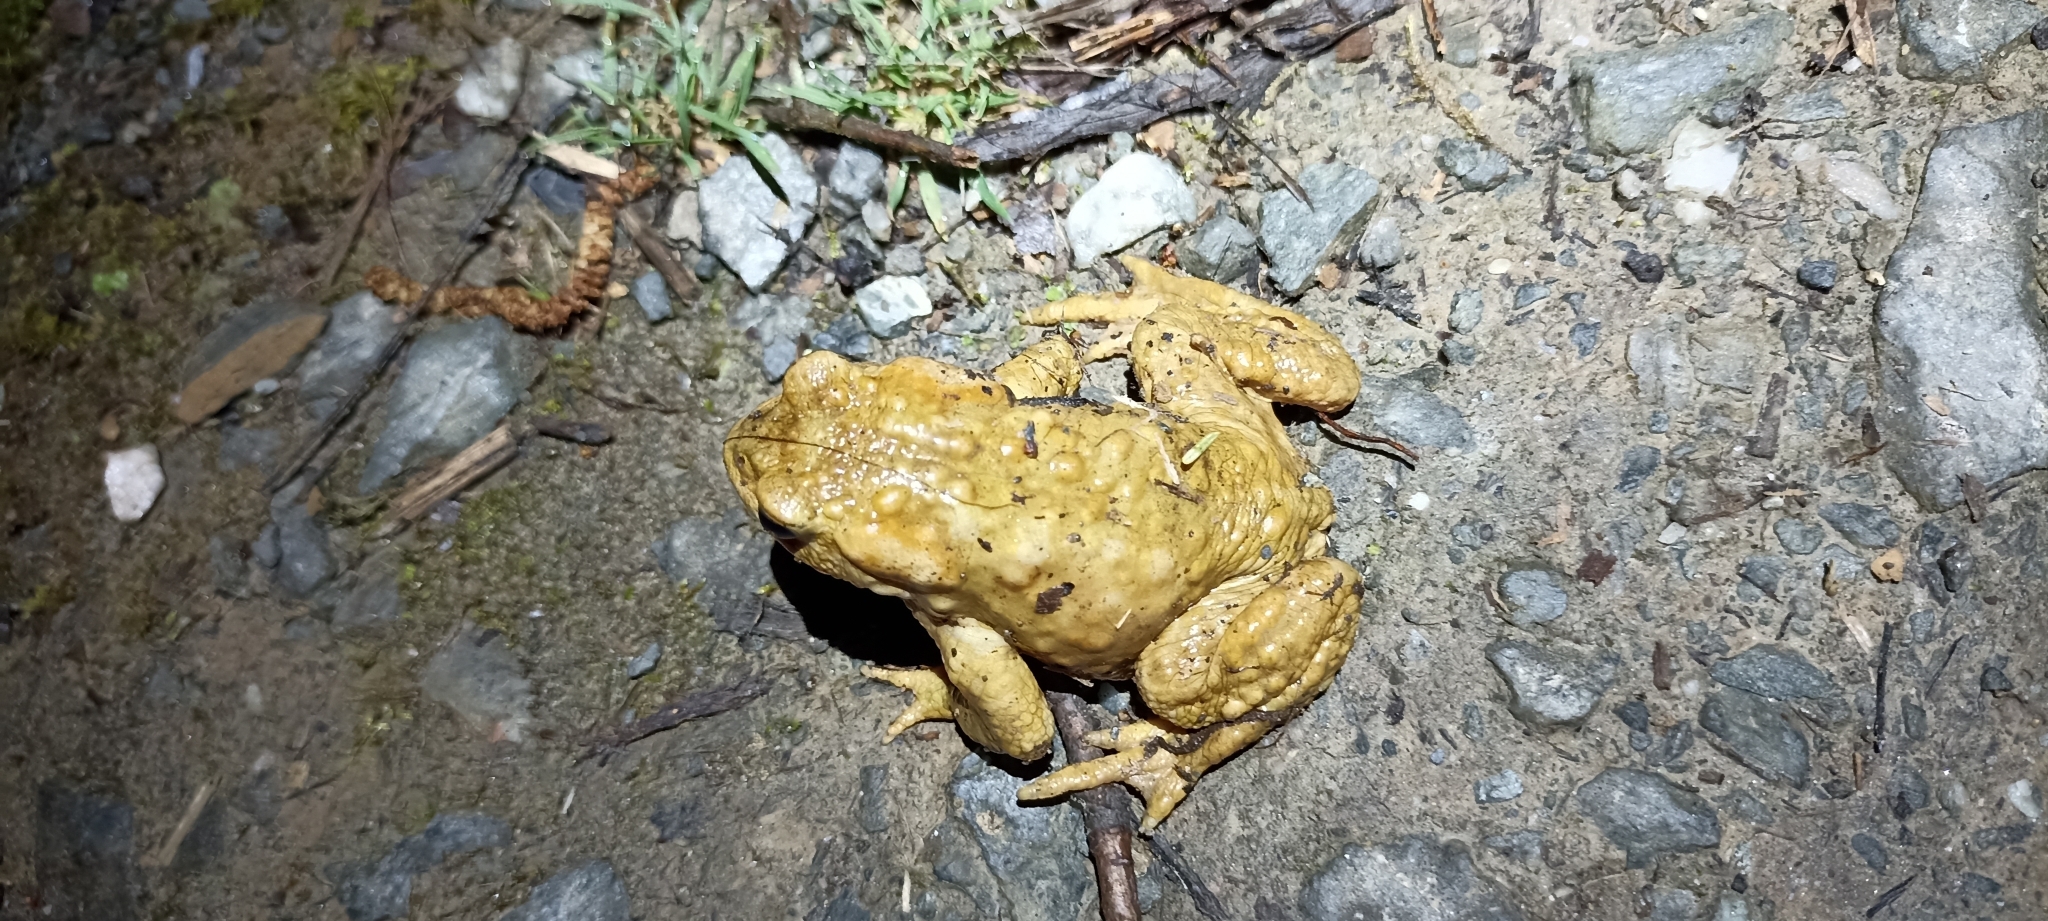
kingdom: Animalia
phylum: Chordata
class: Amphibia
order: Anura
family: Bufonidae
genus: Bufo
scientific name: Bufo spinosus
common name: Western common toad
